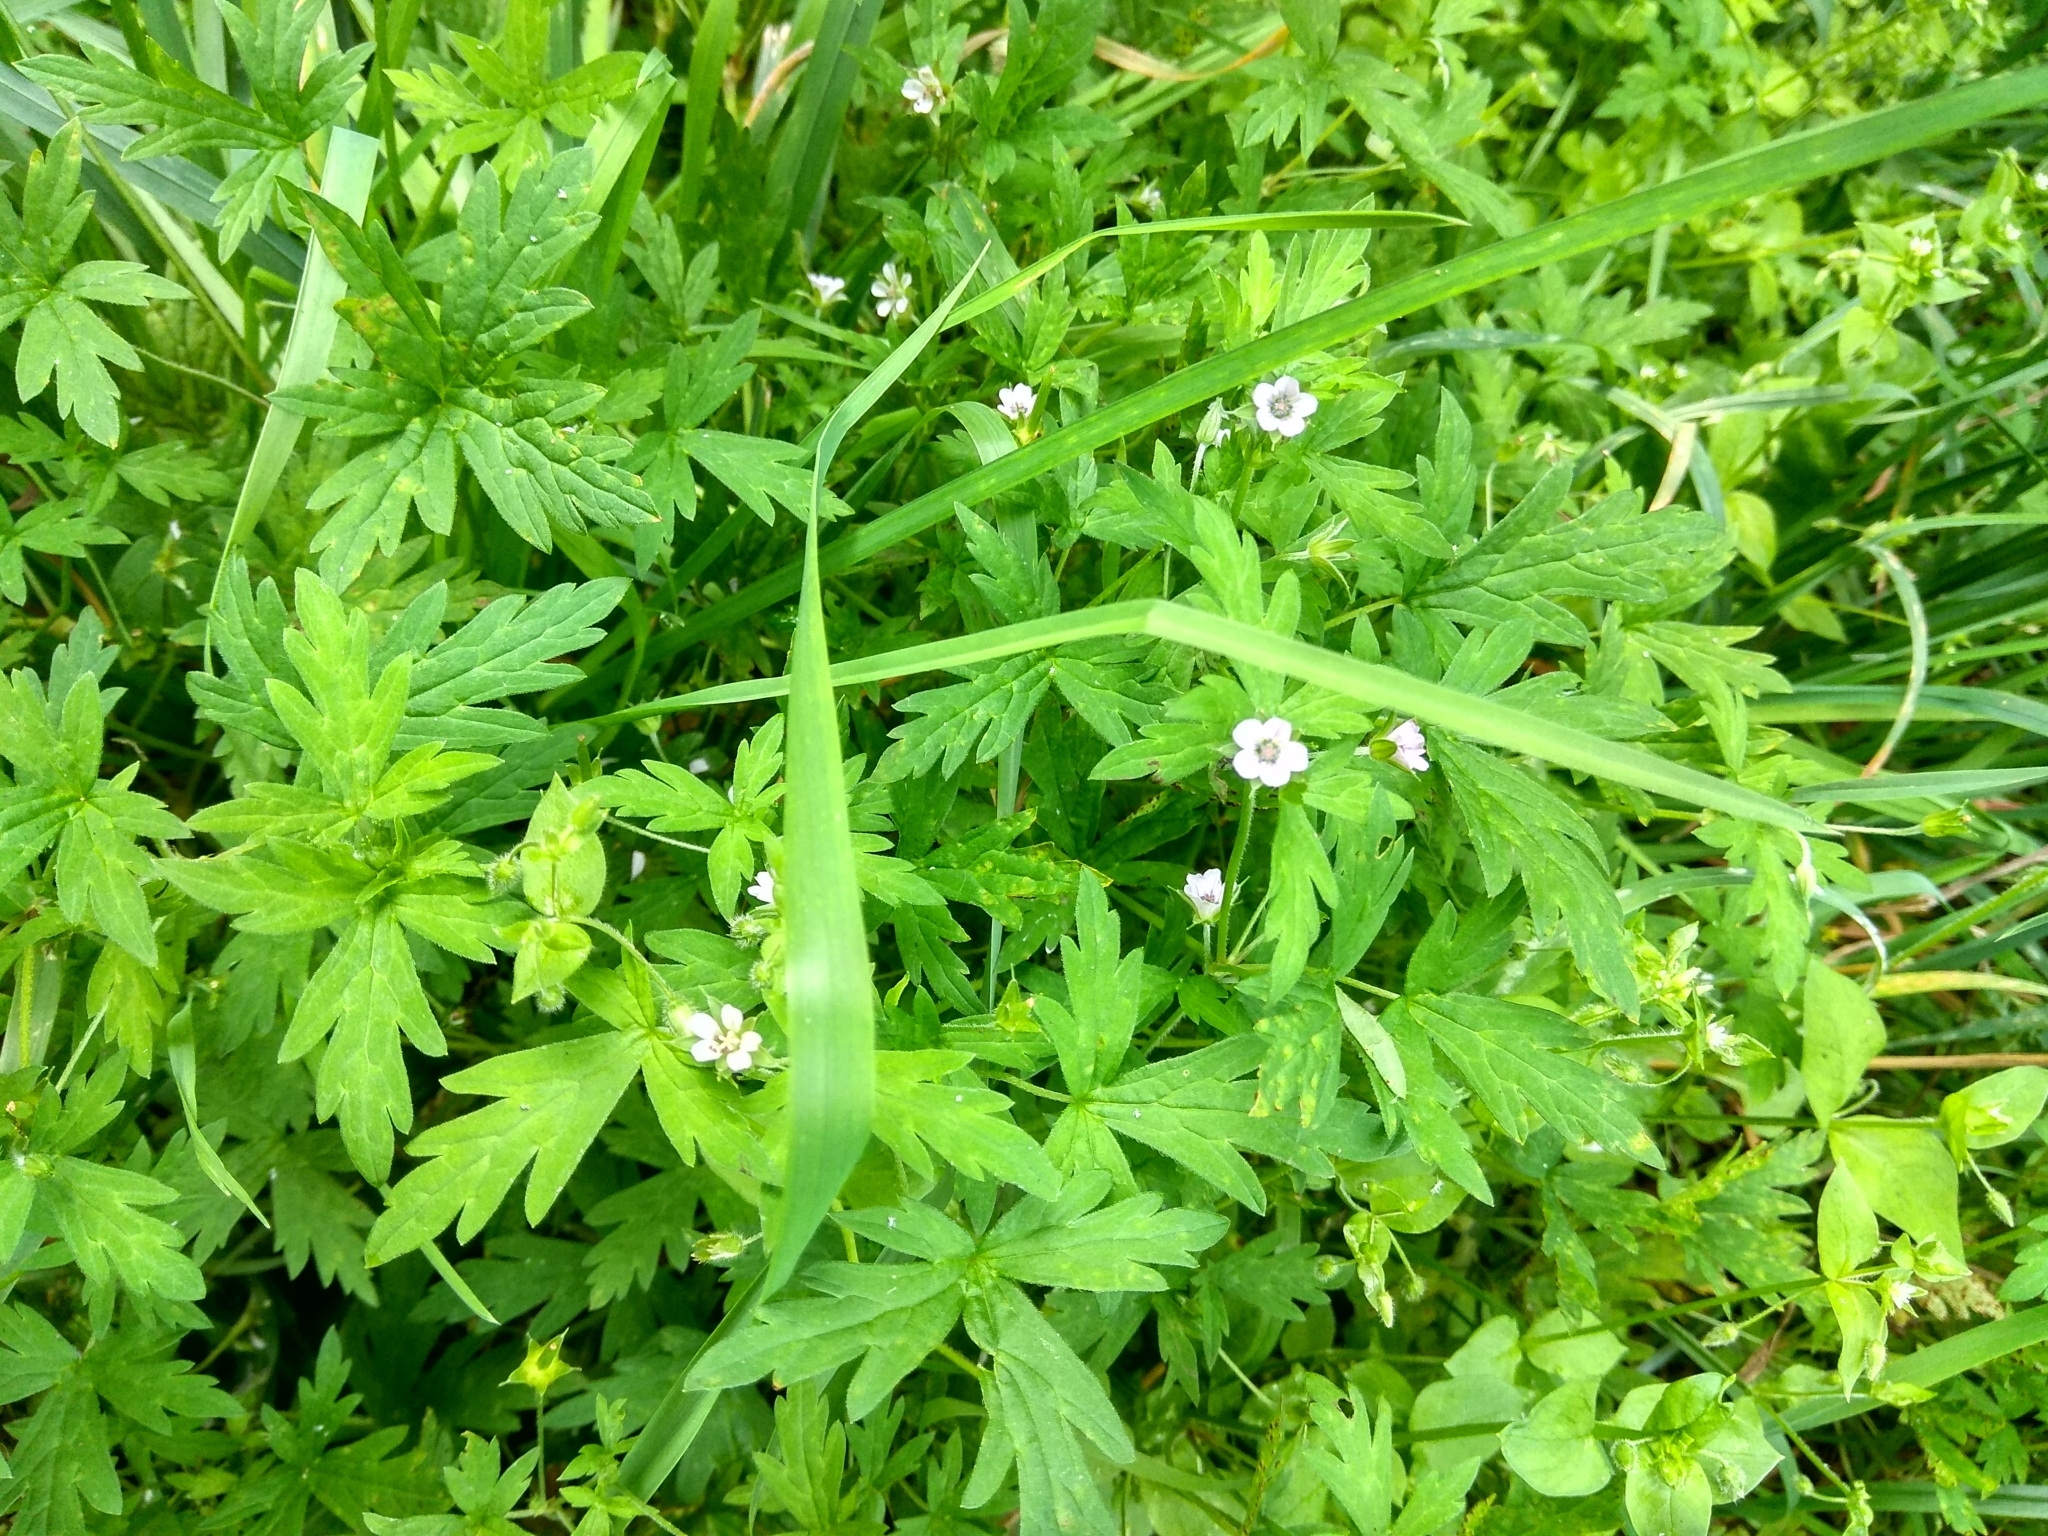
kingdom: Plantae
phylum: Tracheophyta
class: Magnoliopsida
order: Geraniales
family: Geraniaceae
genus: Geranium
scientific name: Geranium sibiricum
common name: Siberian crane's-bill
